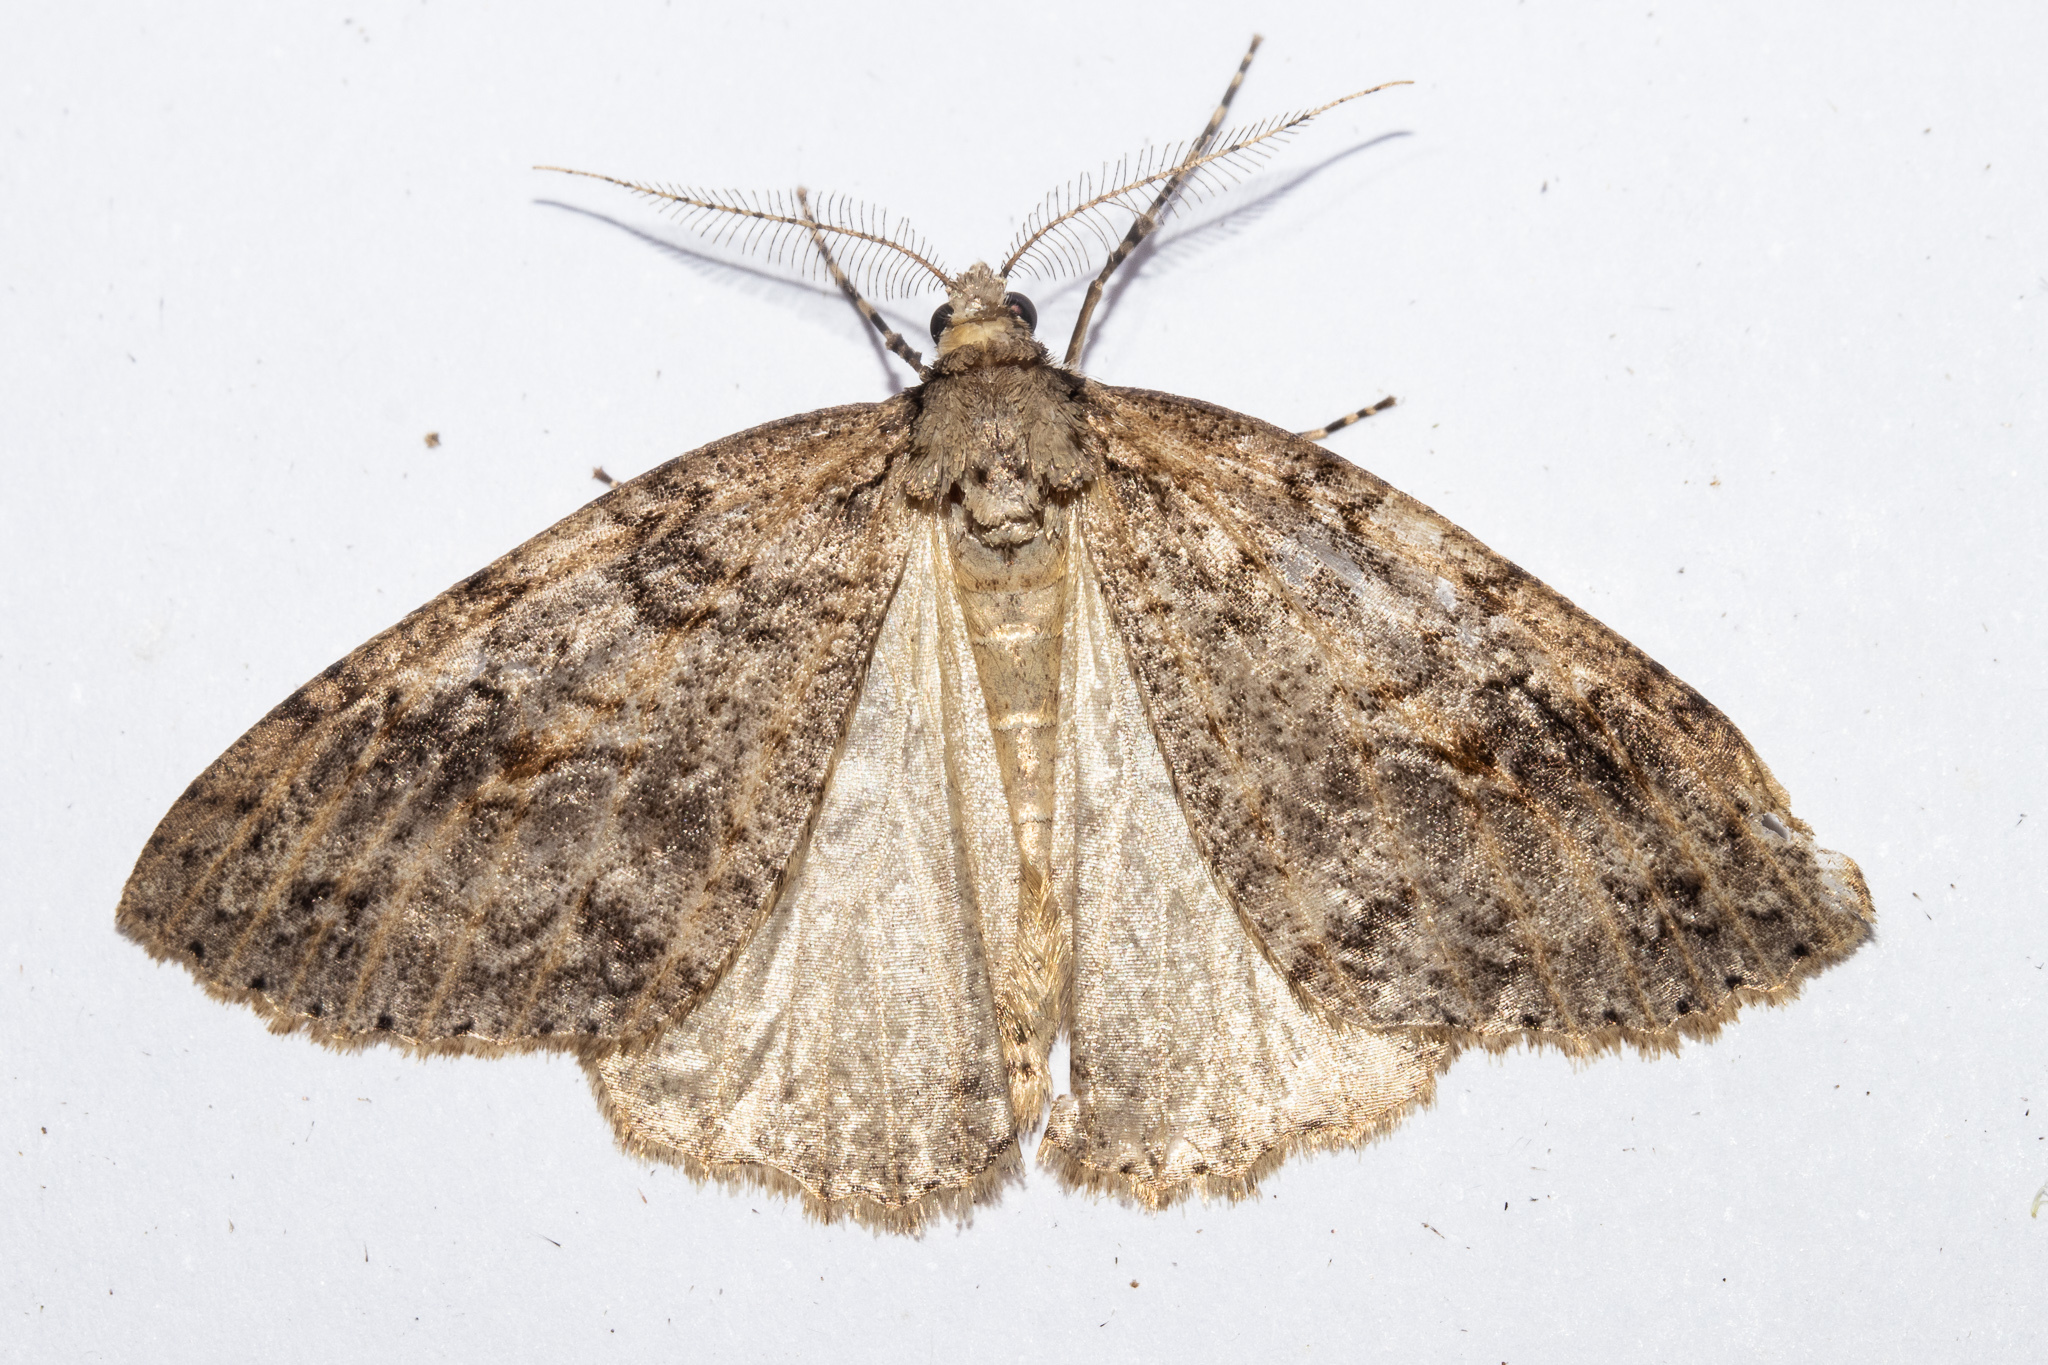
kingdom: Animalia
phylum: Arthropoda
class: Insecta
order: Lepidoptera
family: Geometridae
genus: Pseudocoremia
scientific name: Pseudocoremia rudisata
